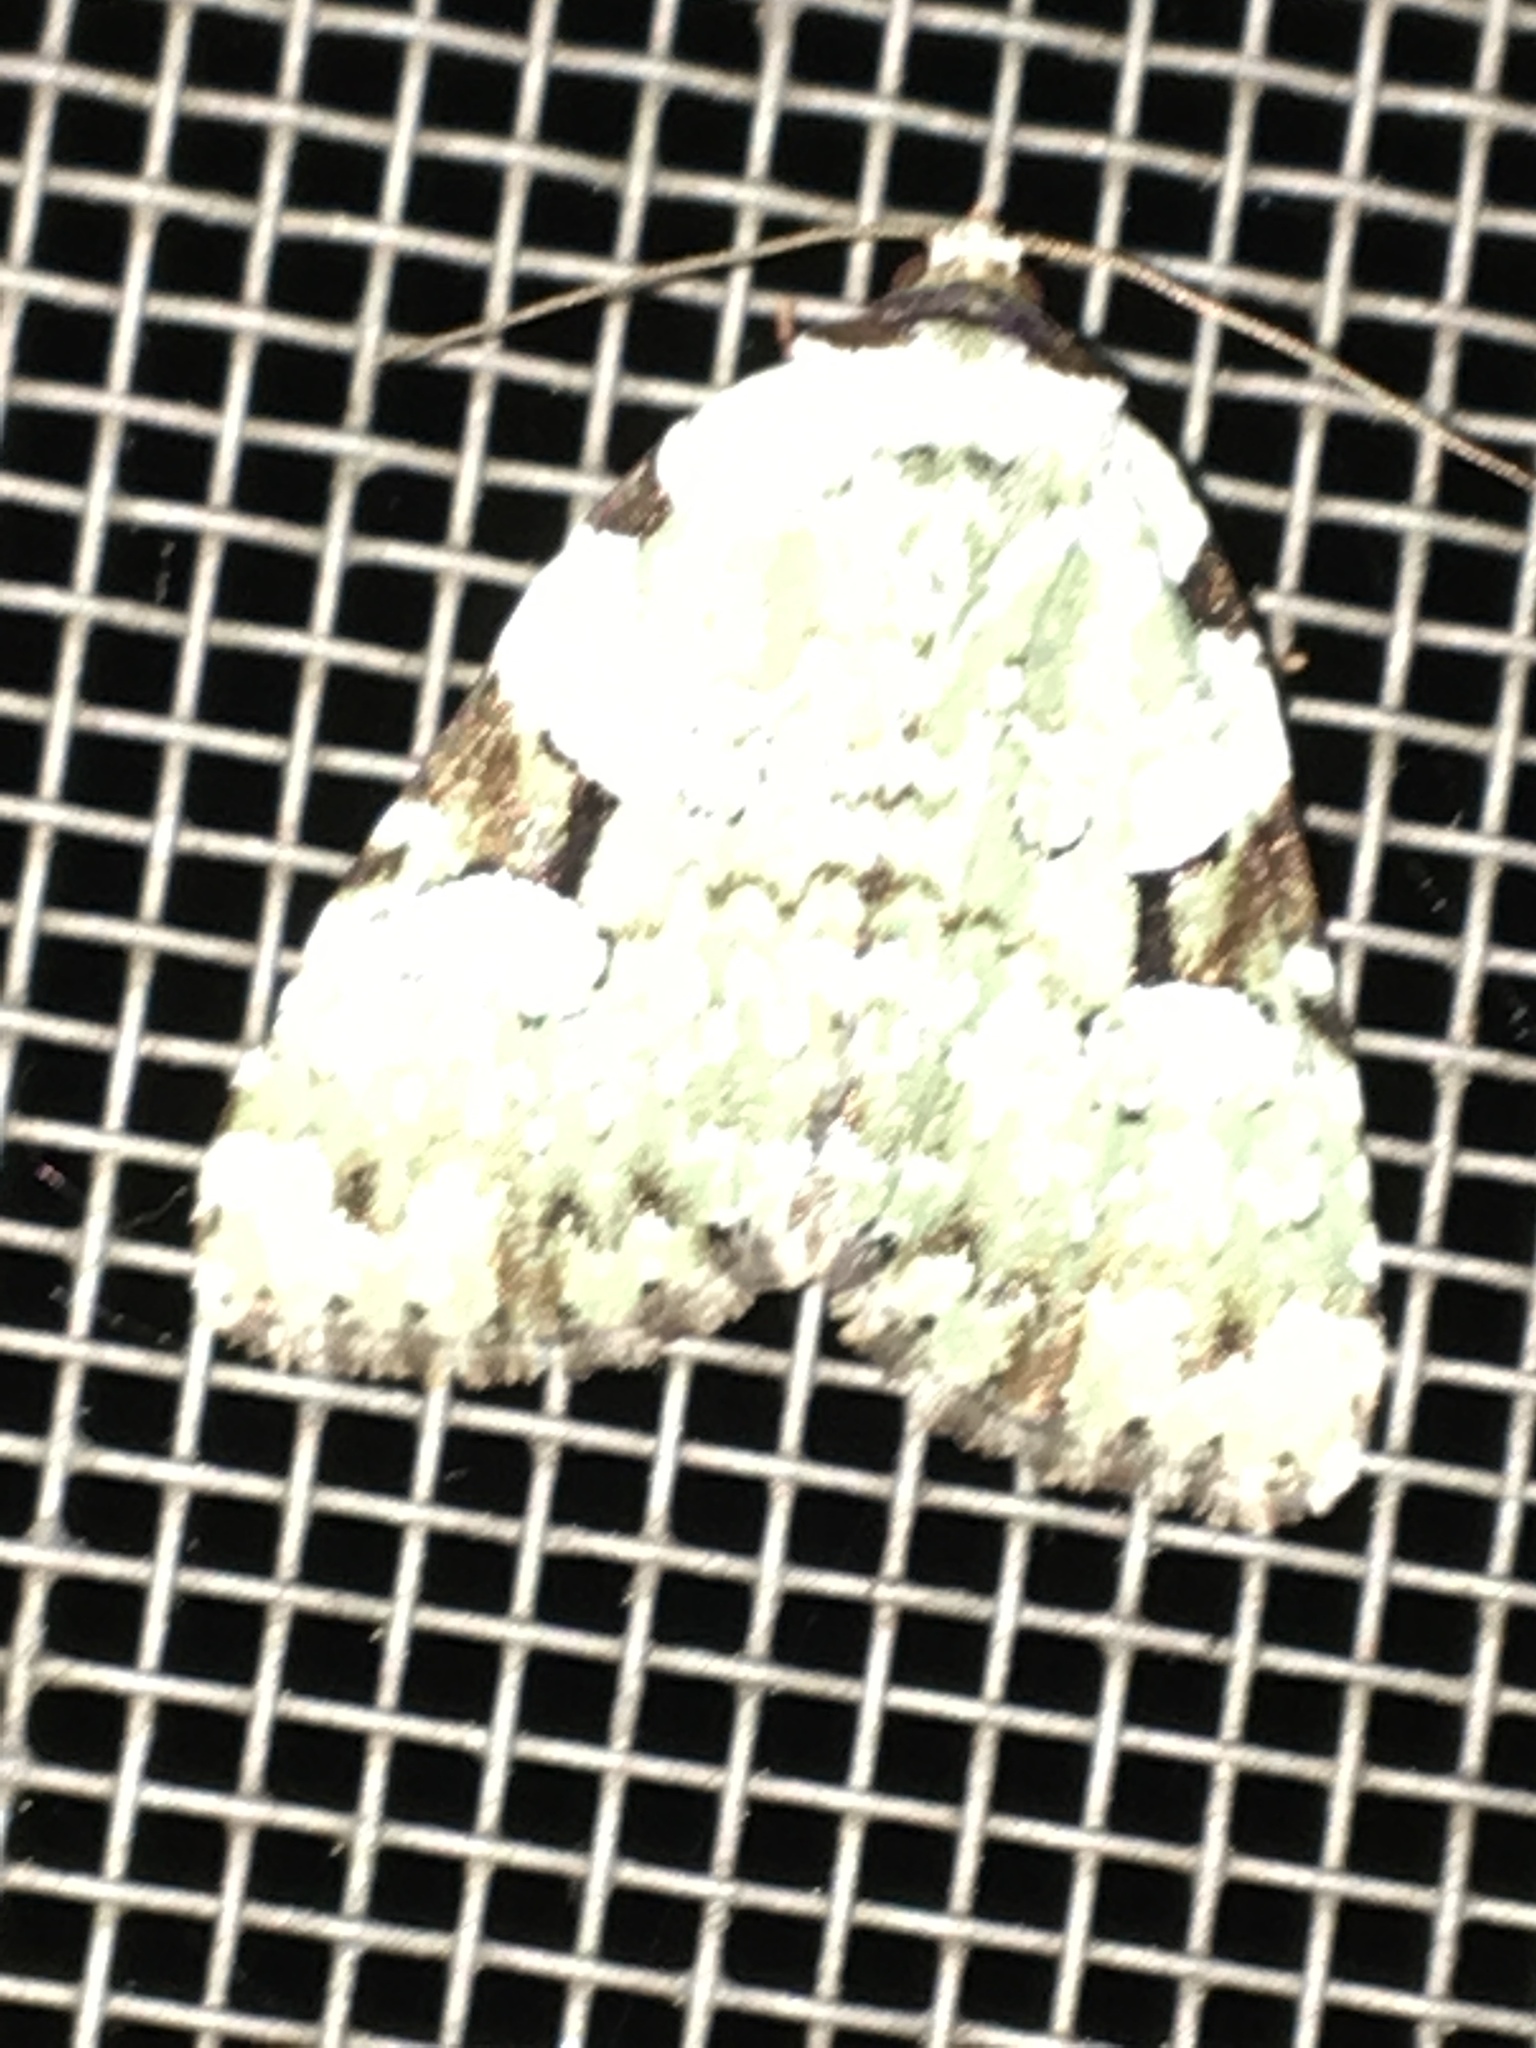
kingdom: Animalia
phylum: Arthropoda
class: Insecta
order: Lepidoptera
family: Noctuidae
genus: Leuconycta
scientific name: Leuconycta diphteroides
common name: Green leuconycta moth
